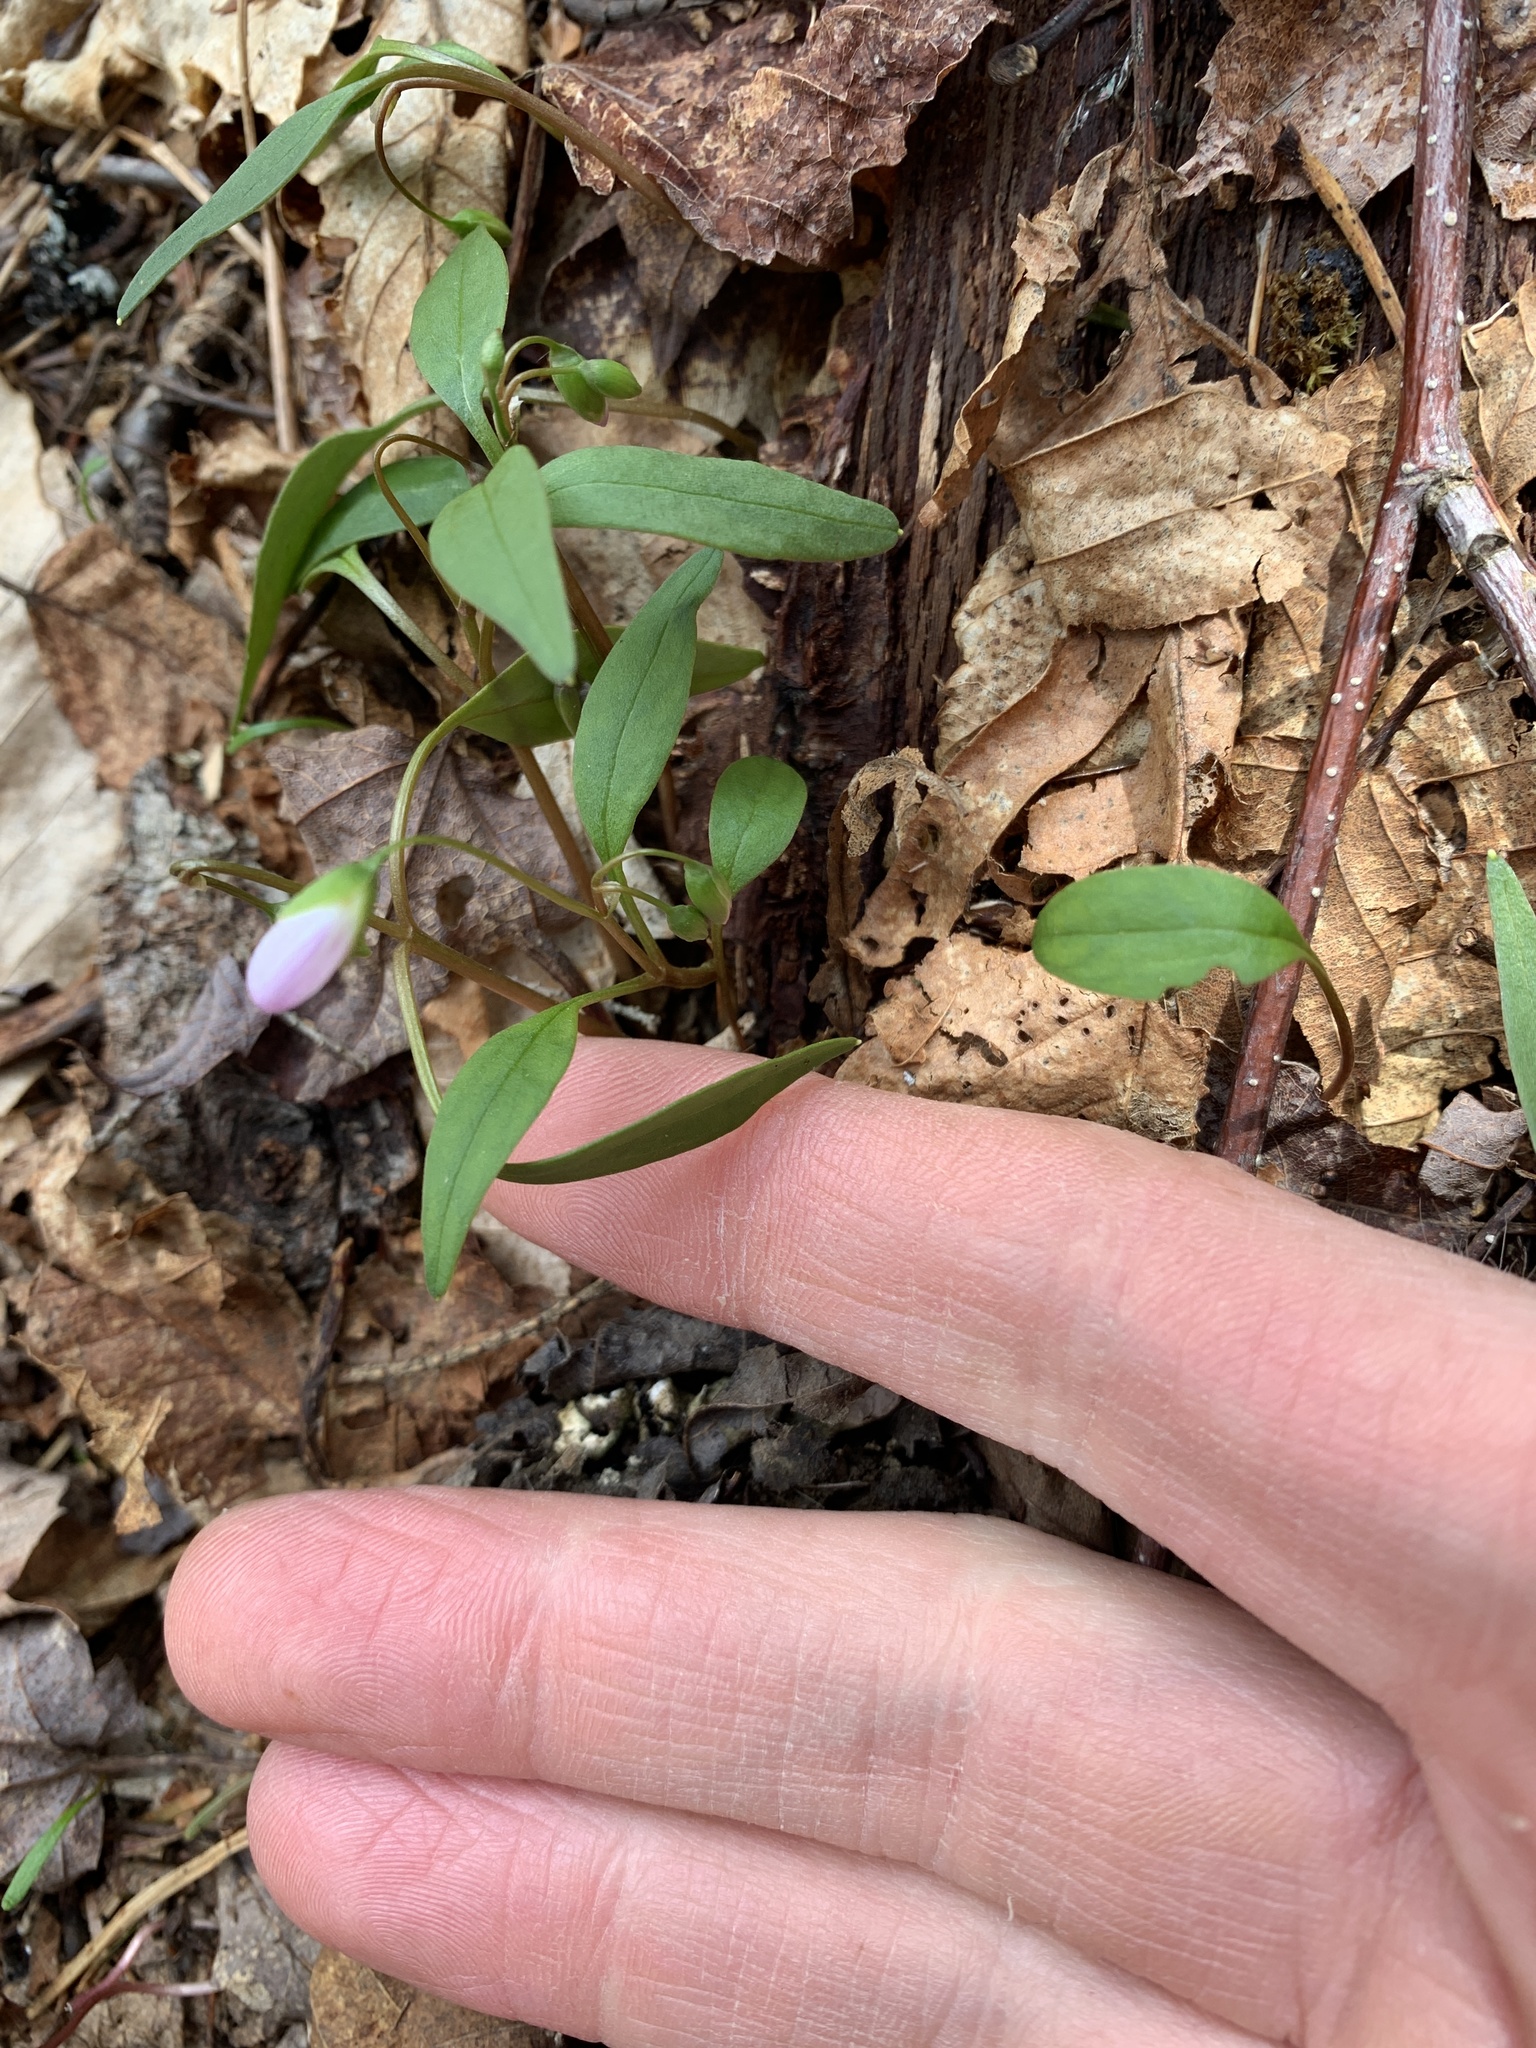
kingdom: Plantae
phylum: Tracheophyta
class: Magnoliopsida
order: Caryophyllales
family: Montiaceae
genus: Claytonia
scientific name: Claytonia caroliniana
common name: Carolina spring beauty
